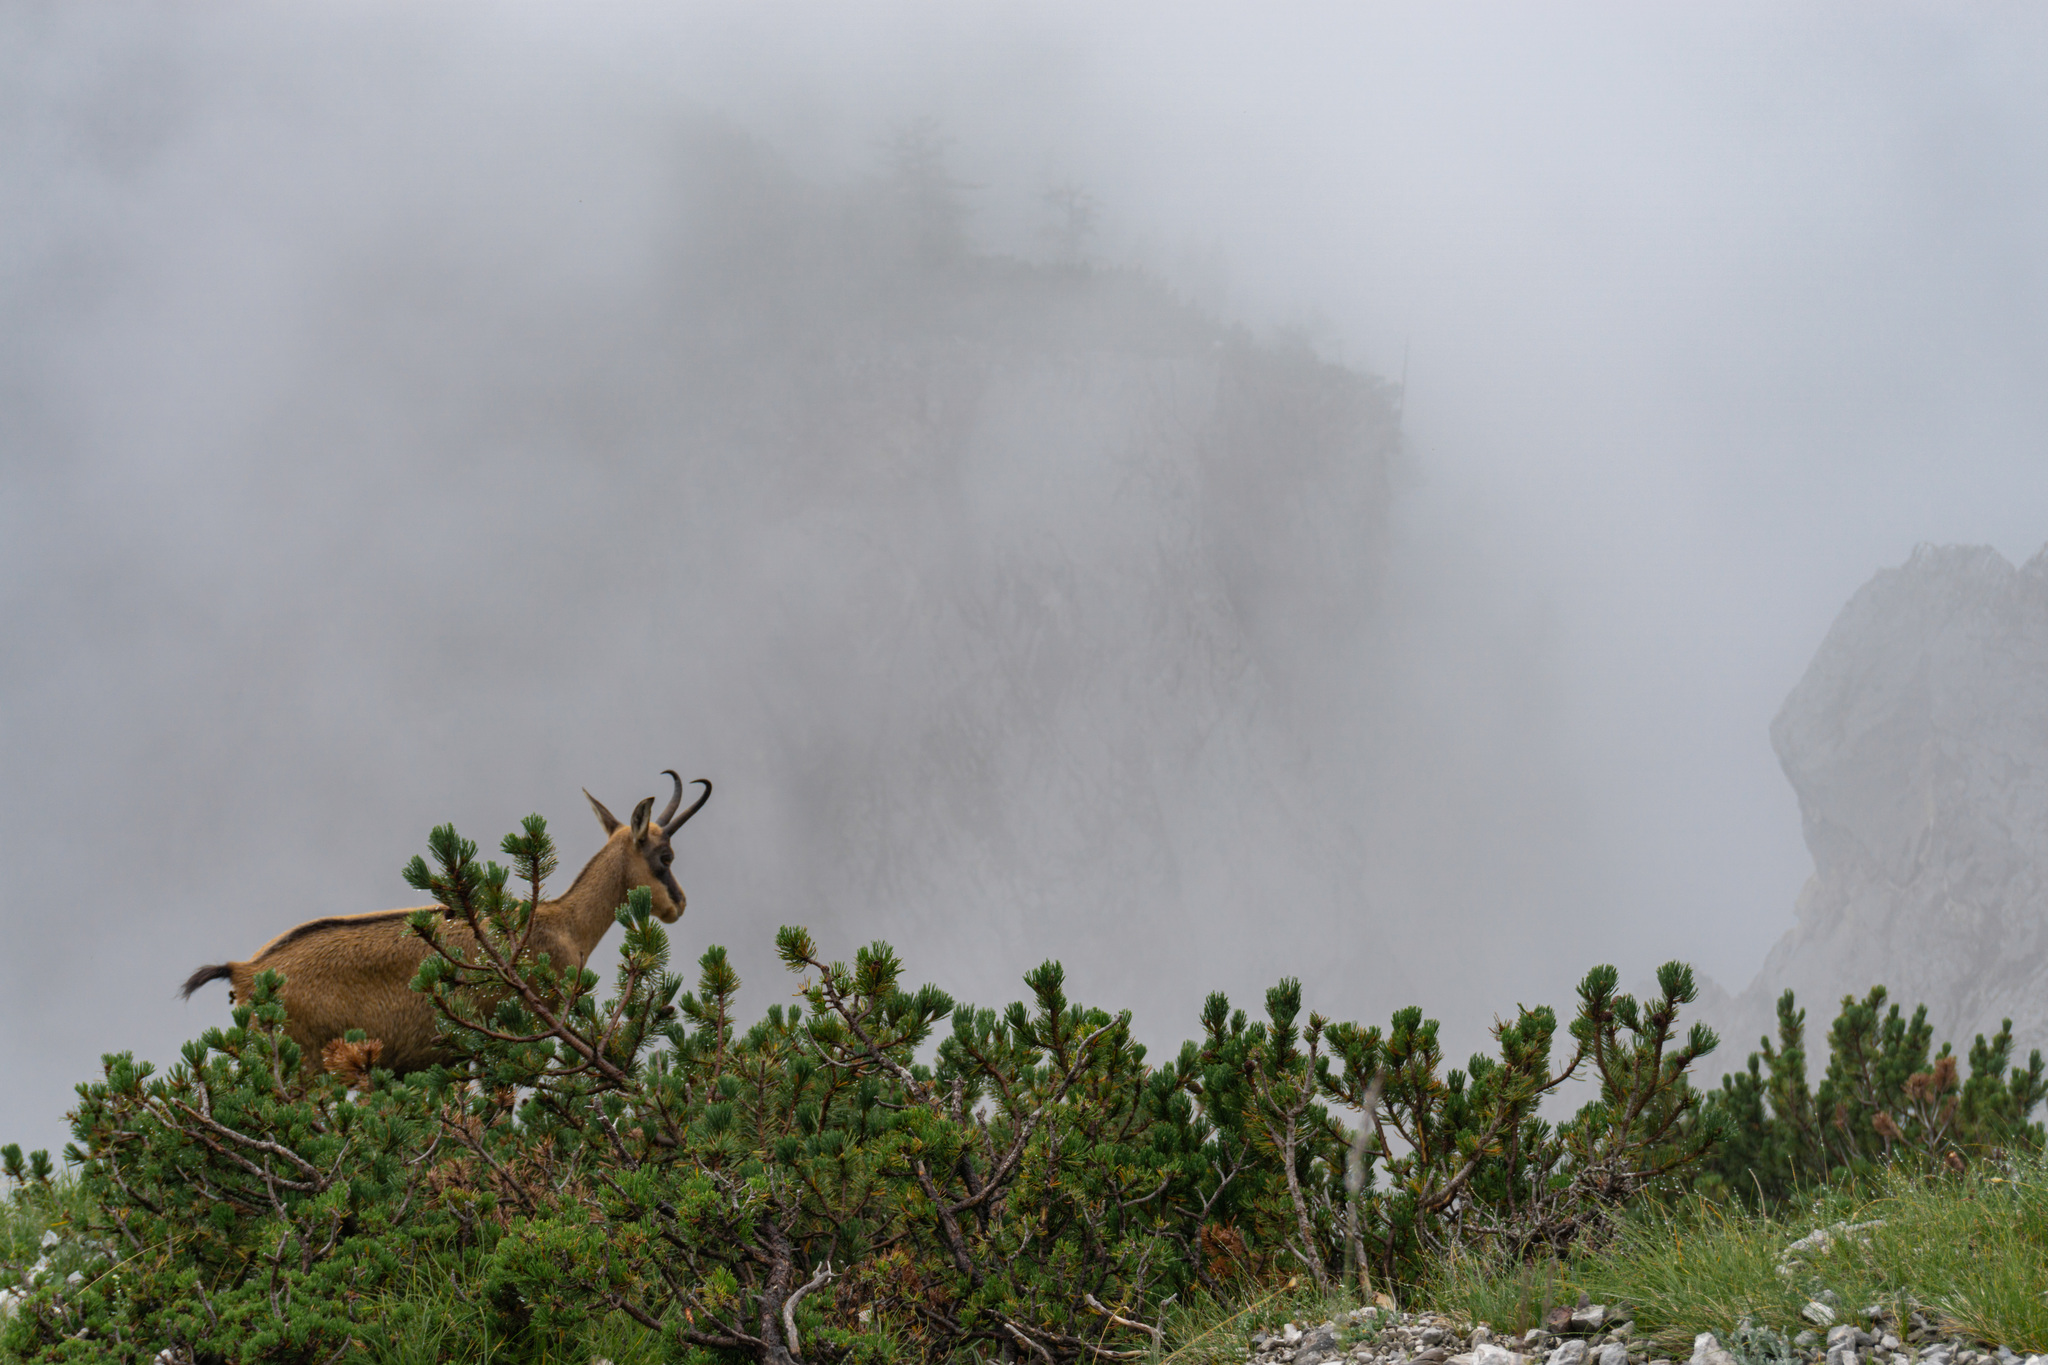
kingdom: Animalia
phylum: Chordata
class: Mammalia
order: Artiodactyla
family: Bovidae
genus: Rupicapra
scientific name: Rupicapra rupicapra
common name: Chamois
